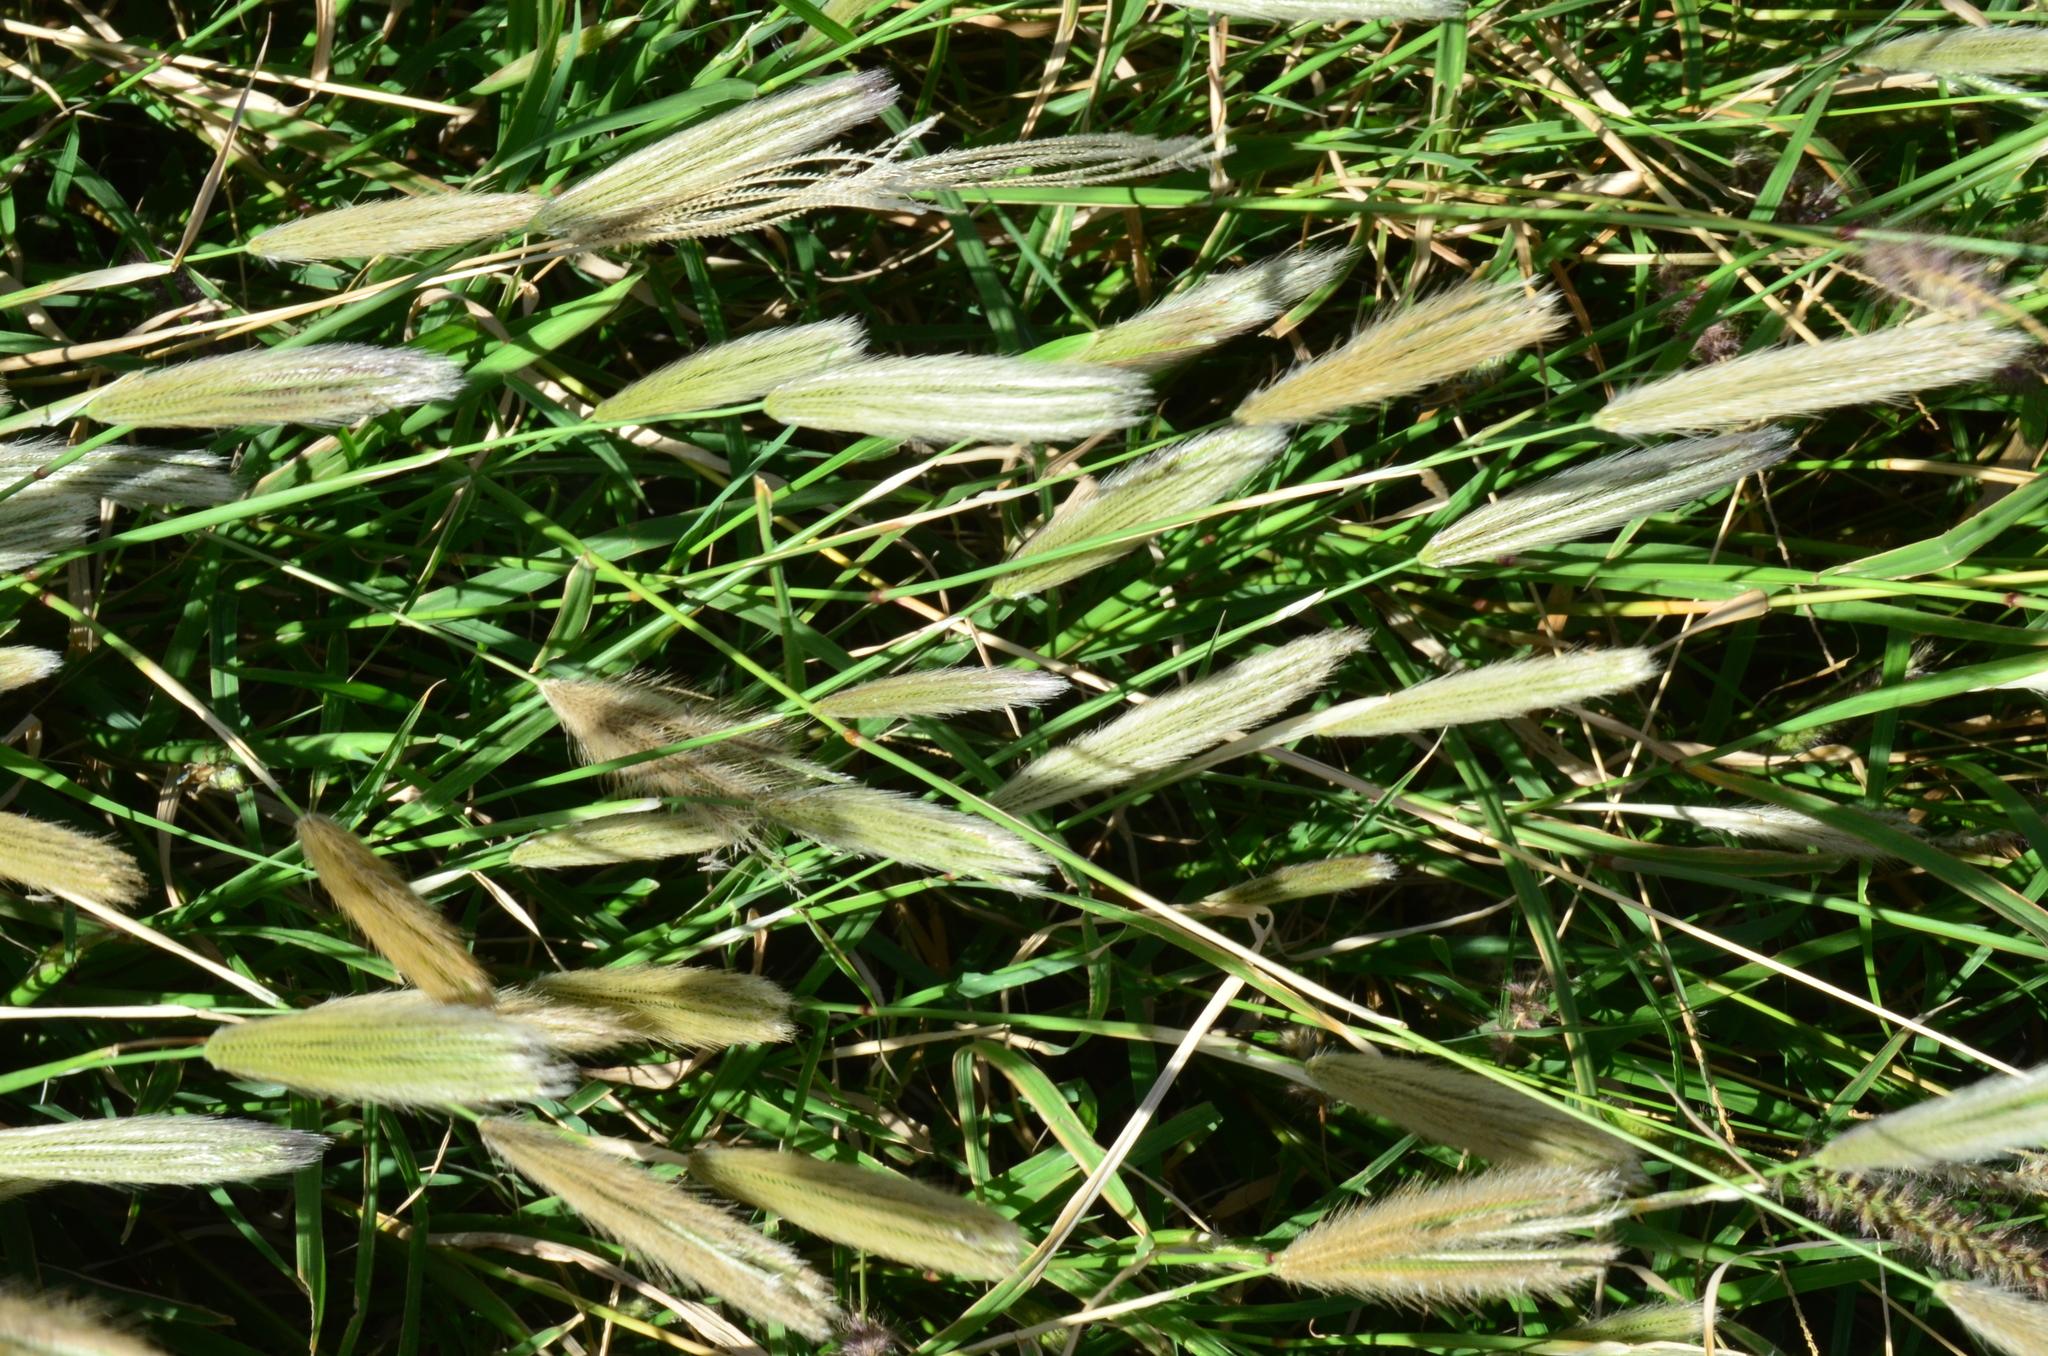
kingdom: Plantae
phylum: Tracheophyta
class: Liliopsida
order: Poales
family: Poaceae
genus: Chloris
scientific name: Chloris virgata
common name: Feathery rhodes-grass
